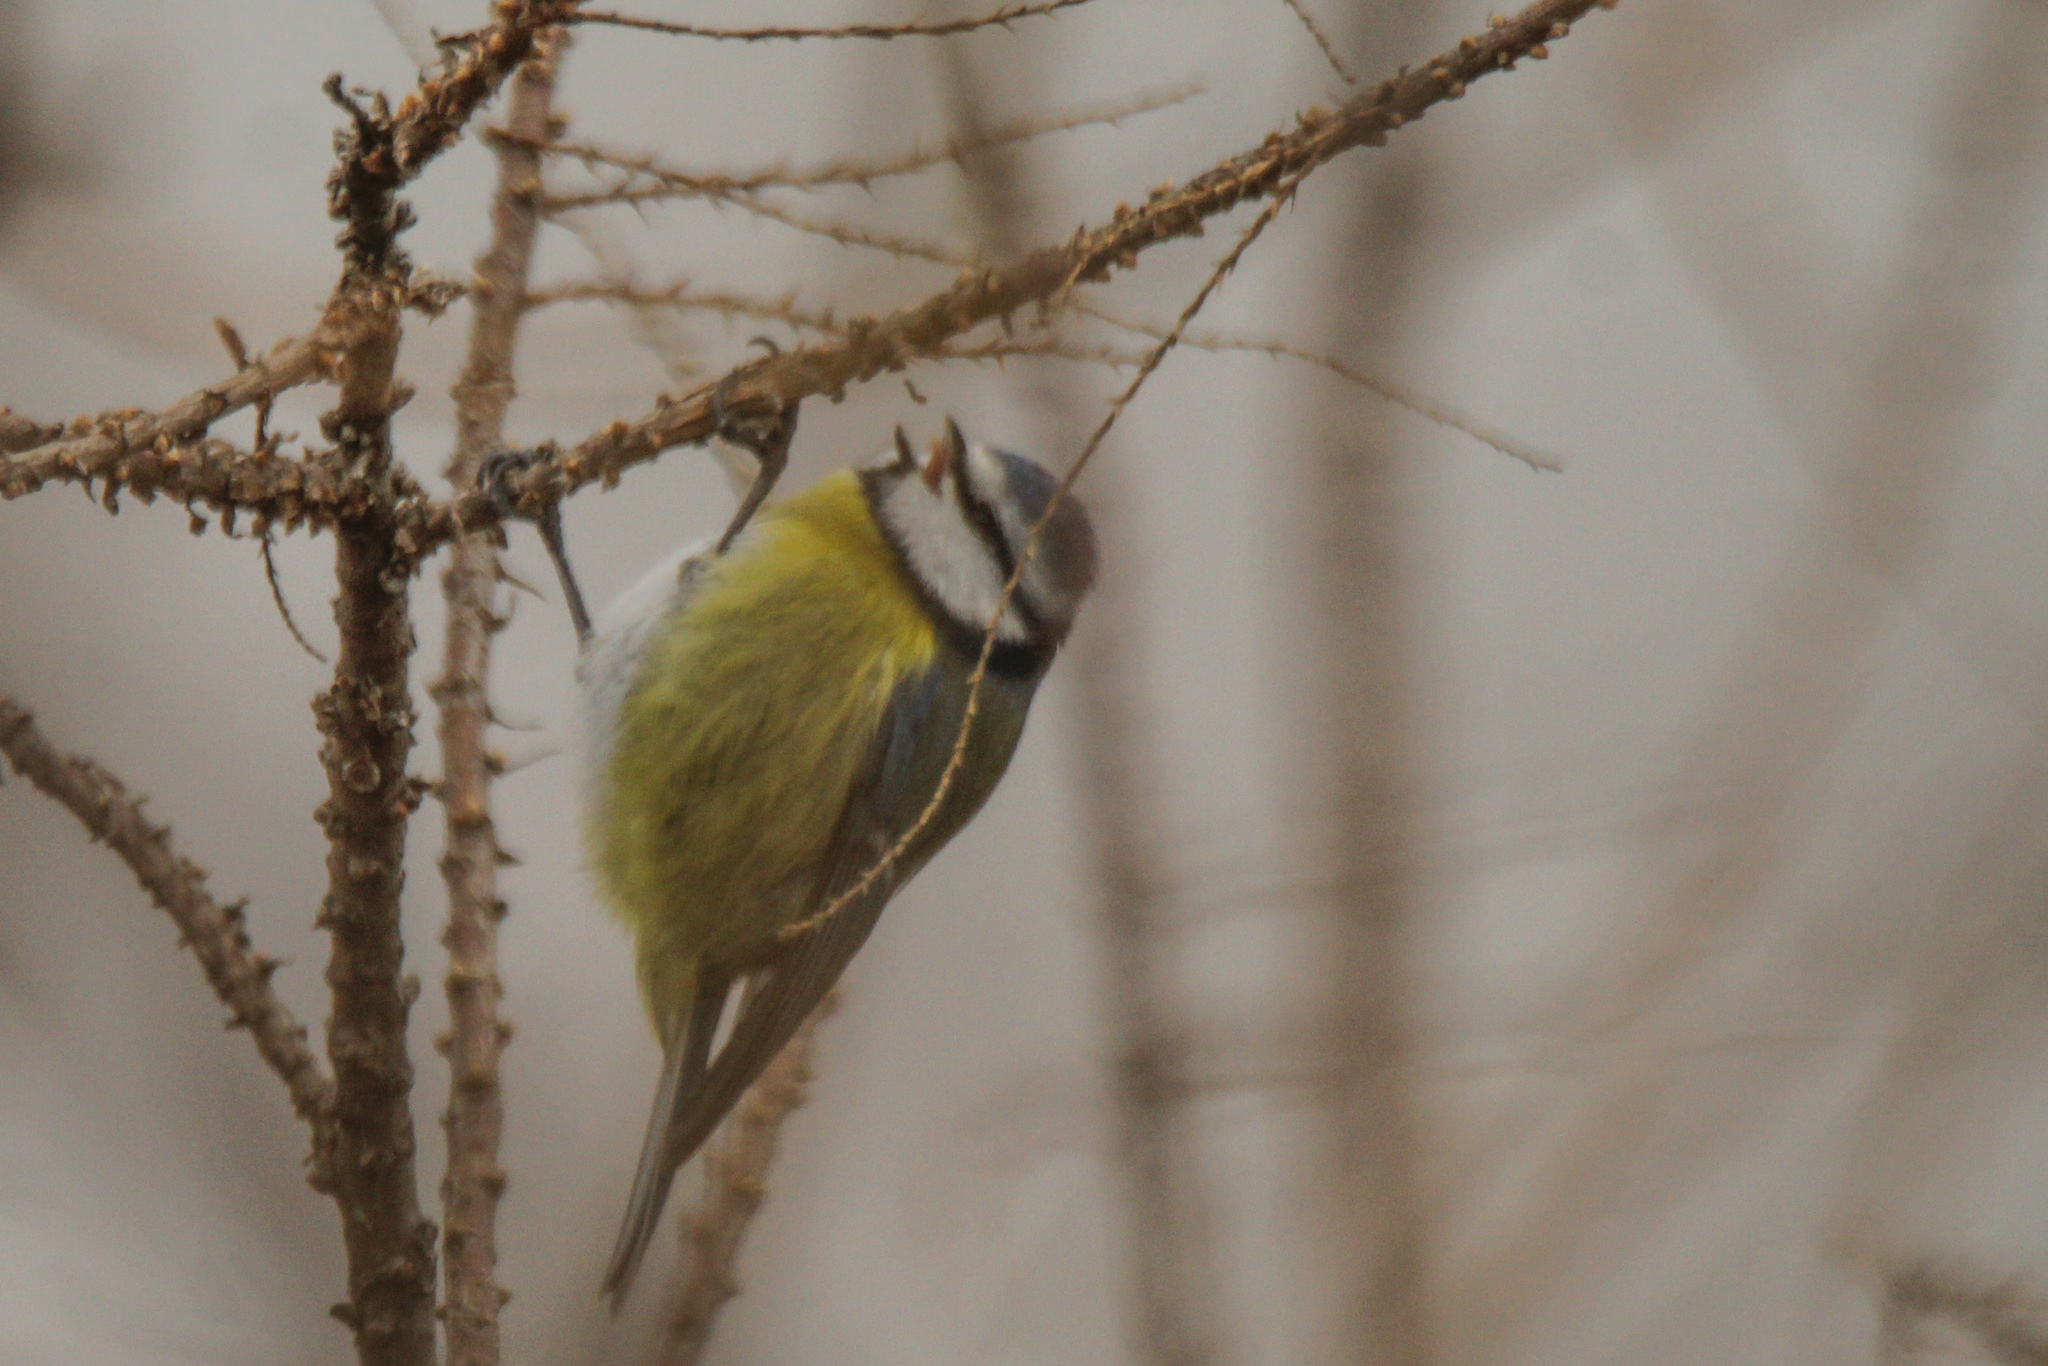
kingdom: Animalia
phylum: Chordata
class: Aves
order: Passeriformes
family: Paridae
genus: Cyanistes
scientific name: Cyanistes caeruleus
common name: Eurasian blue tit
